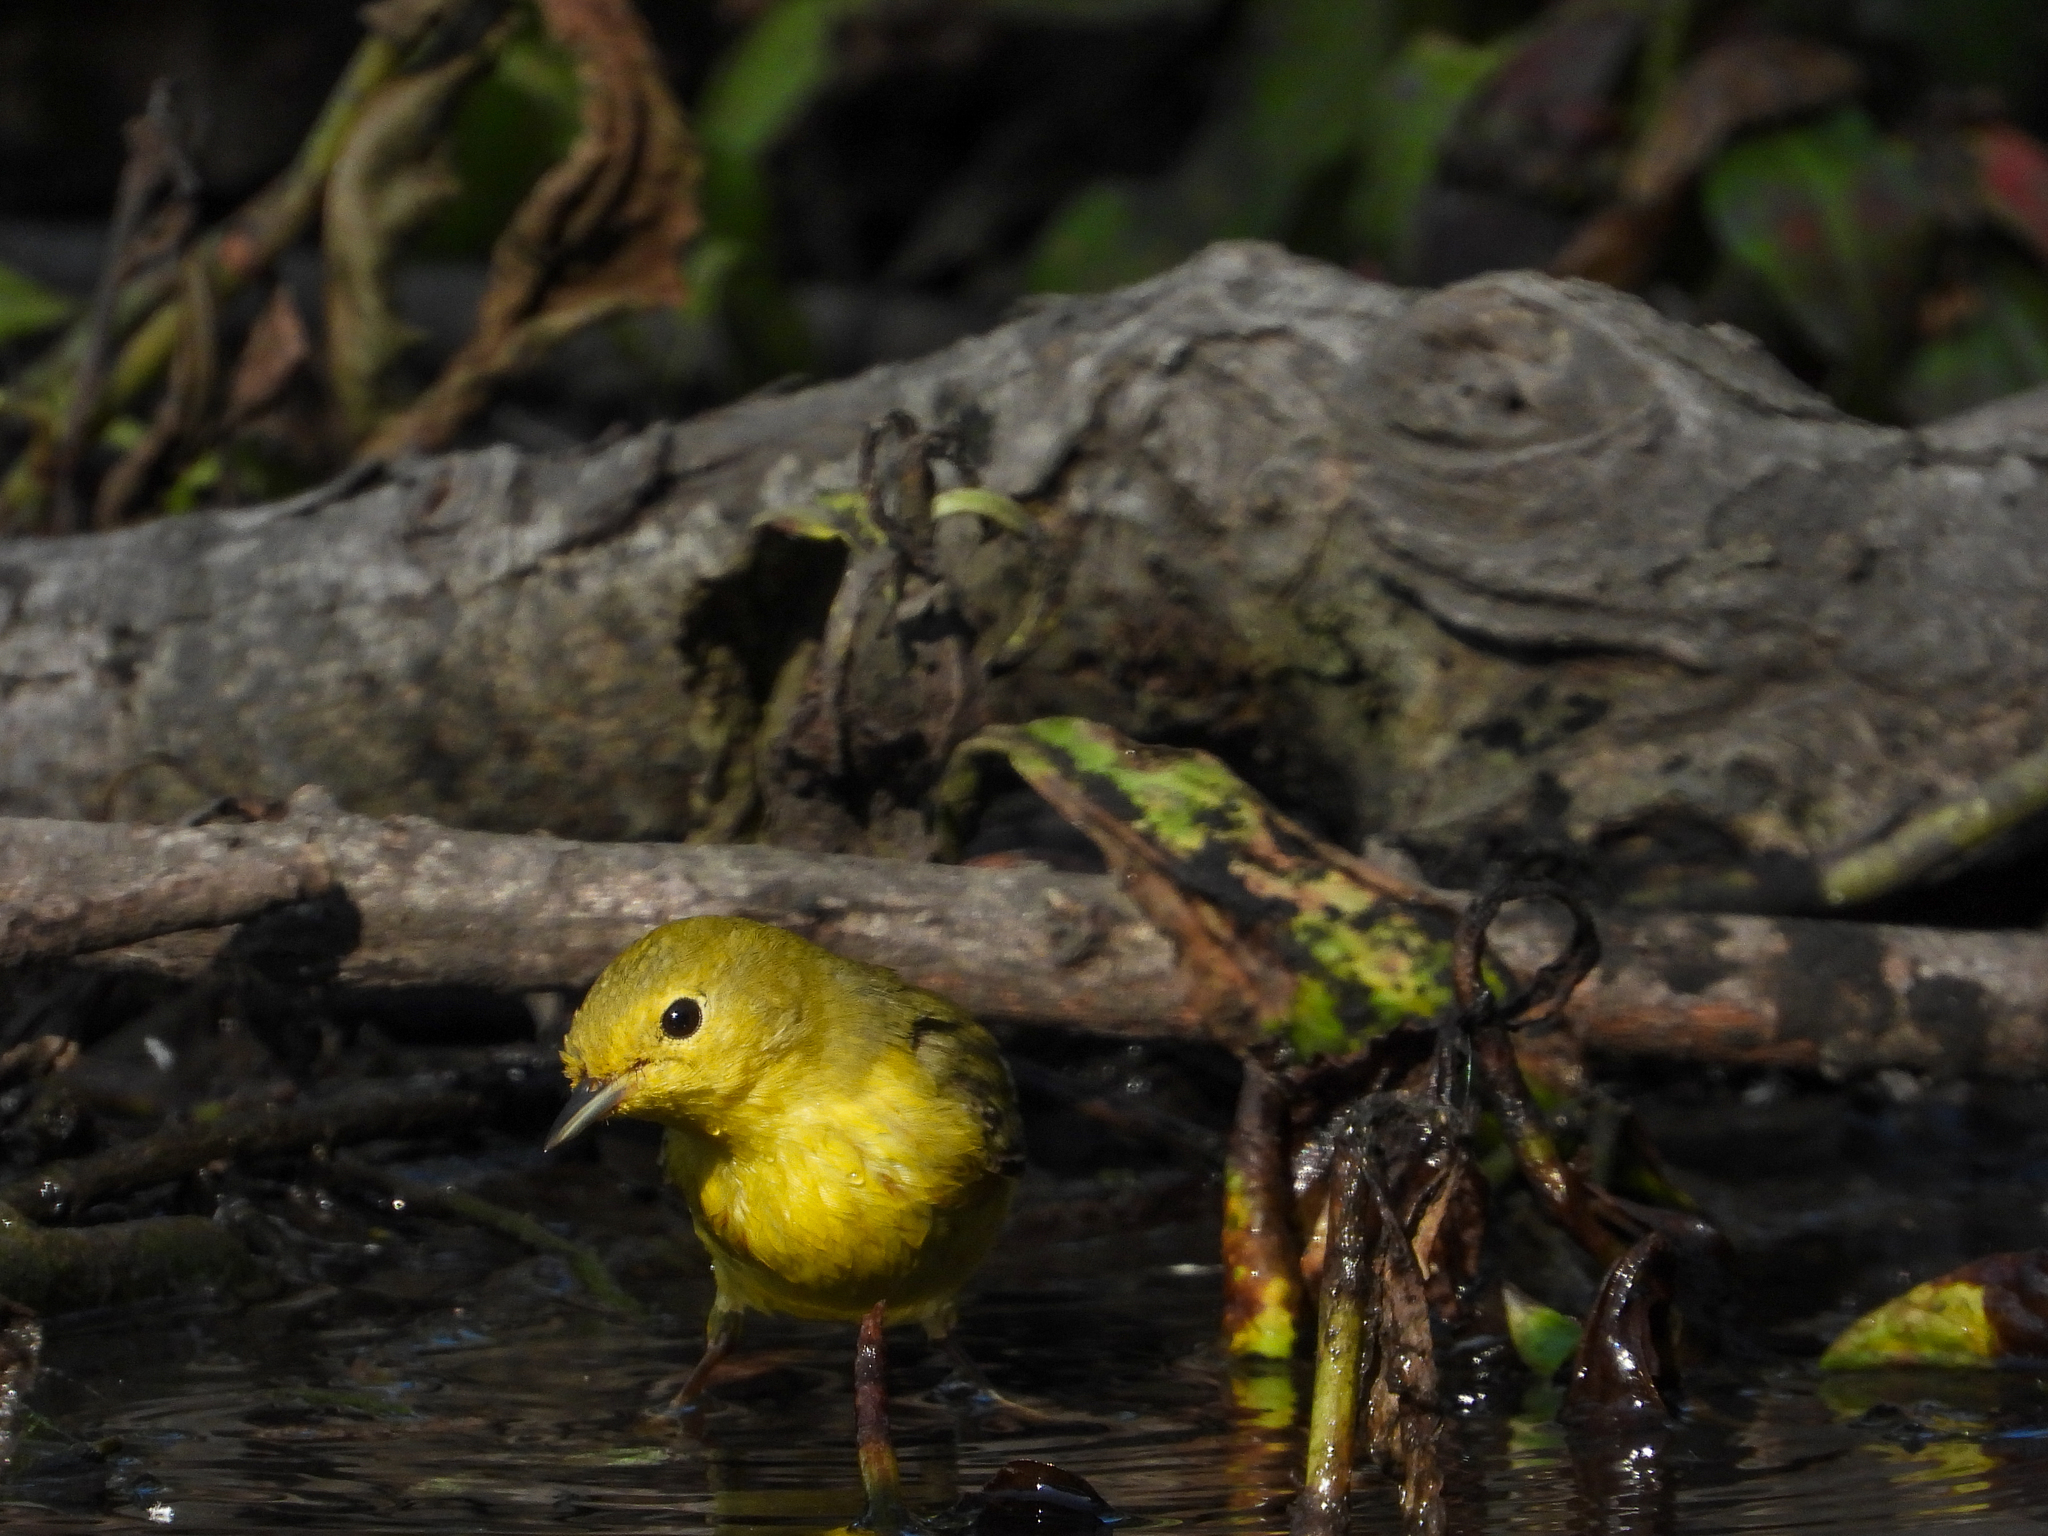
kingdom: Animalia
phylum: Chordata
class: Aves
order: Passeriformes
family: Parulidae
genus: Setophaga
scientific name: Setophaga petechia
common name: Yellow warbler
